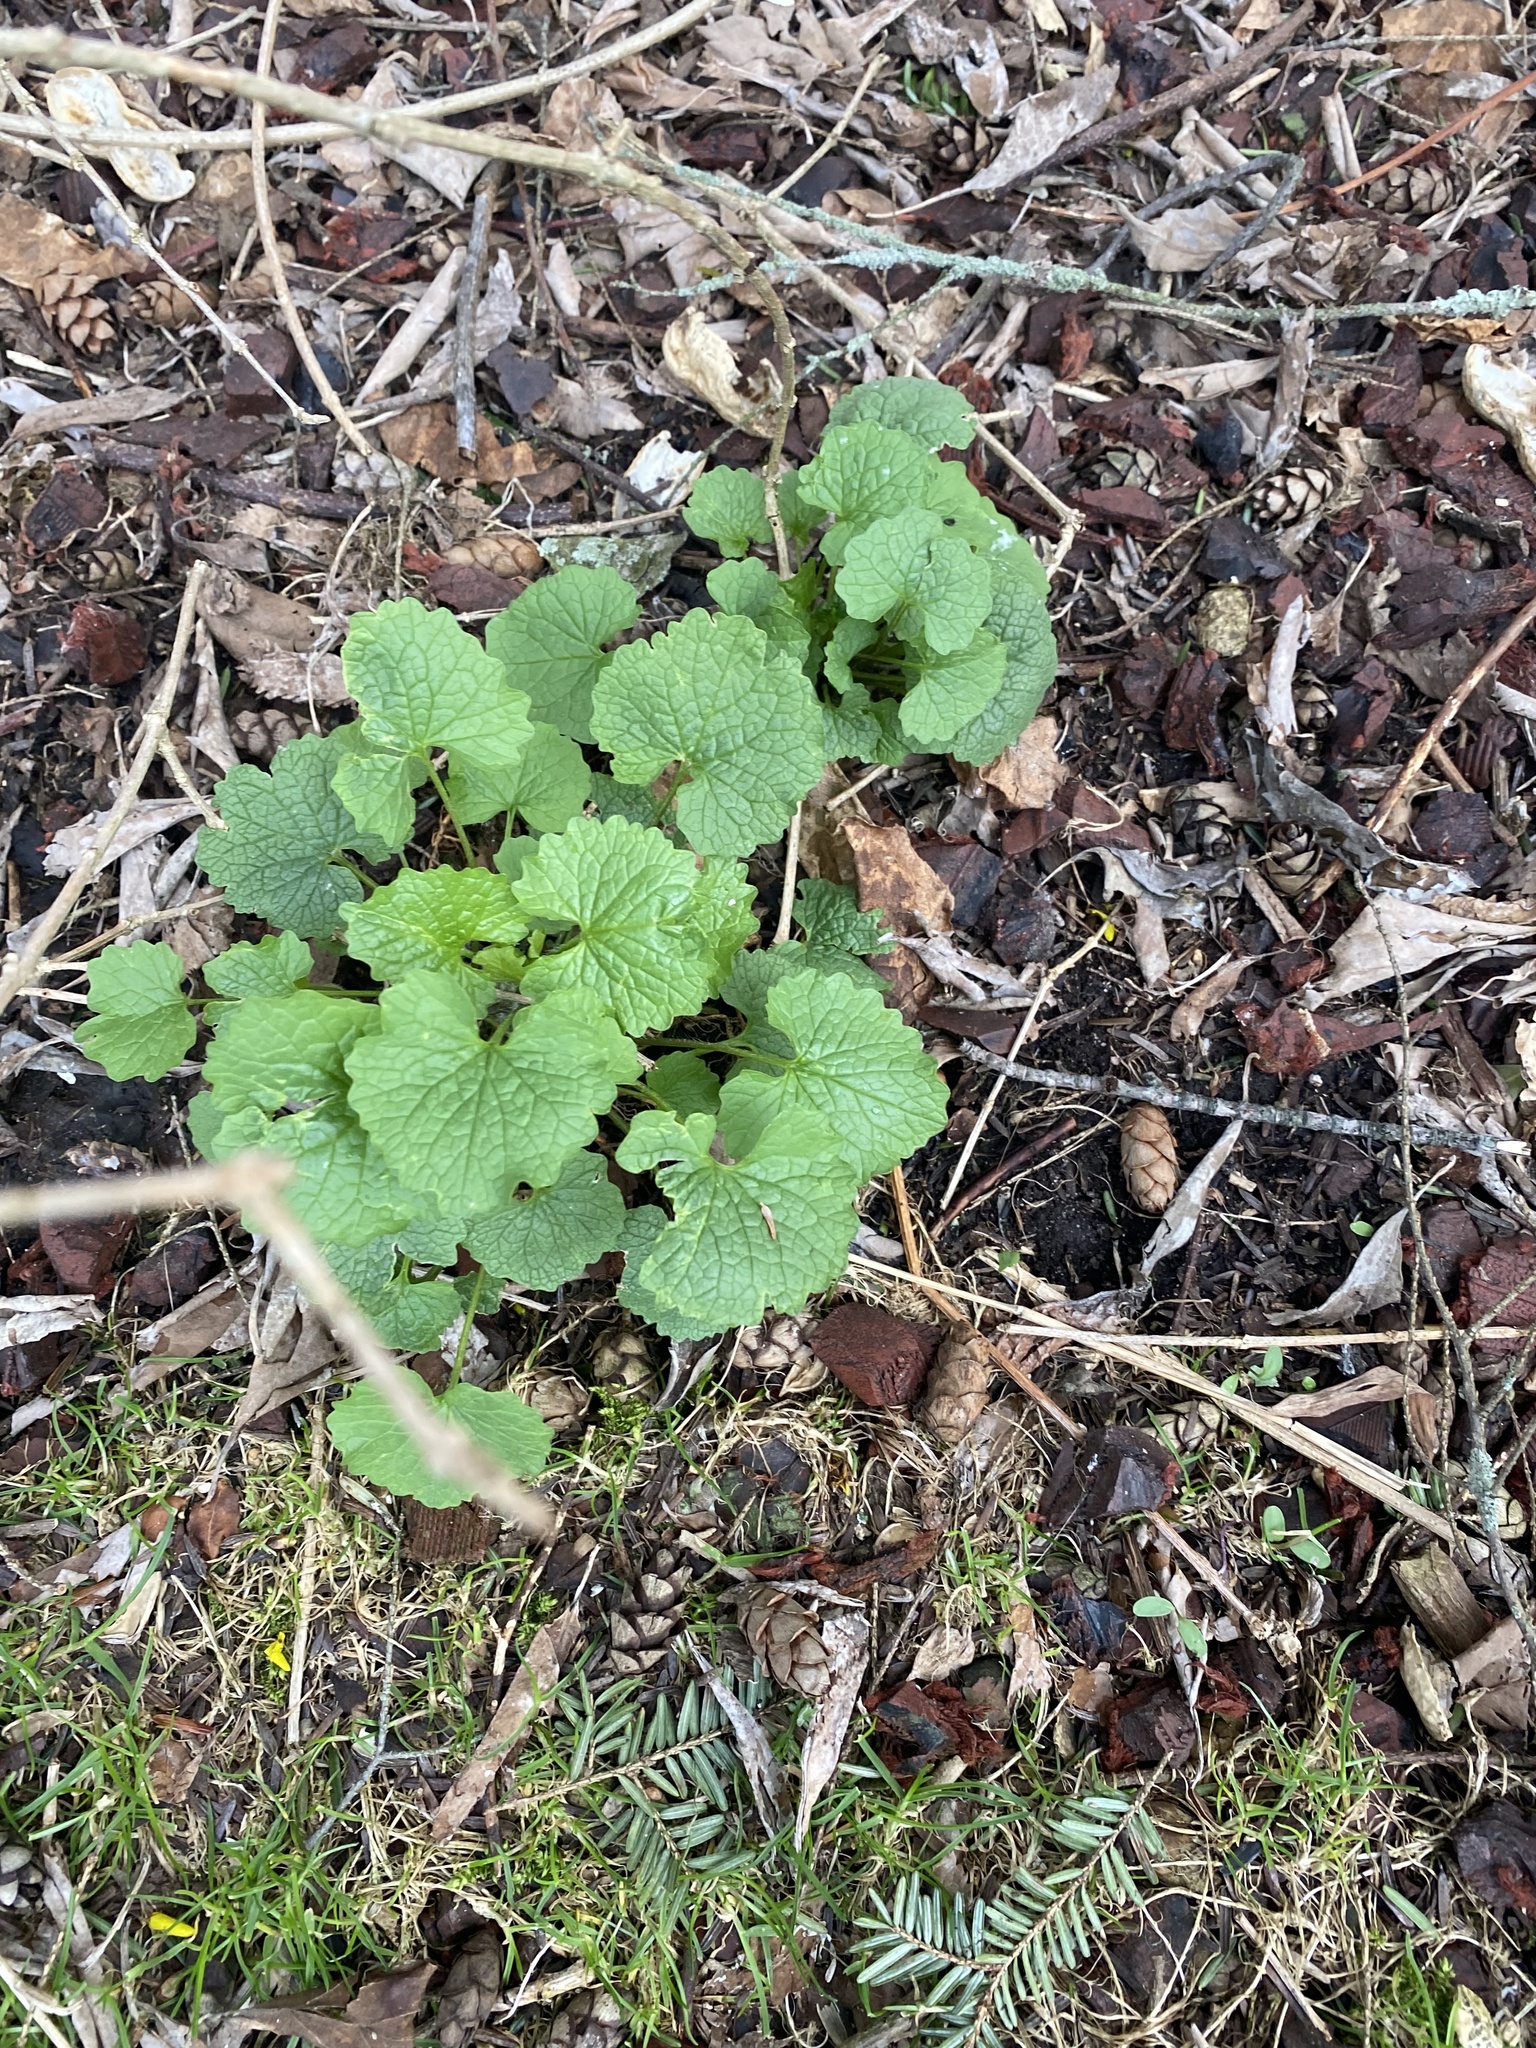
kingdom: Plantae
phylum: Tracheophyta
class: Magnoliopsida
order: Brassicales
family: Brassicaceae
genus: Alliaria
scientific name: Alliaria petiolata
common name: Garlic mustard
